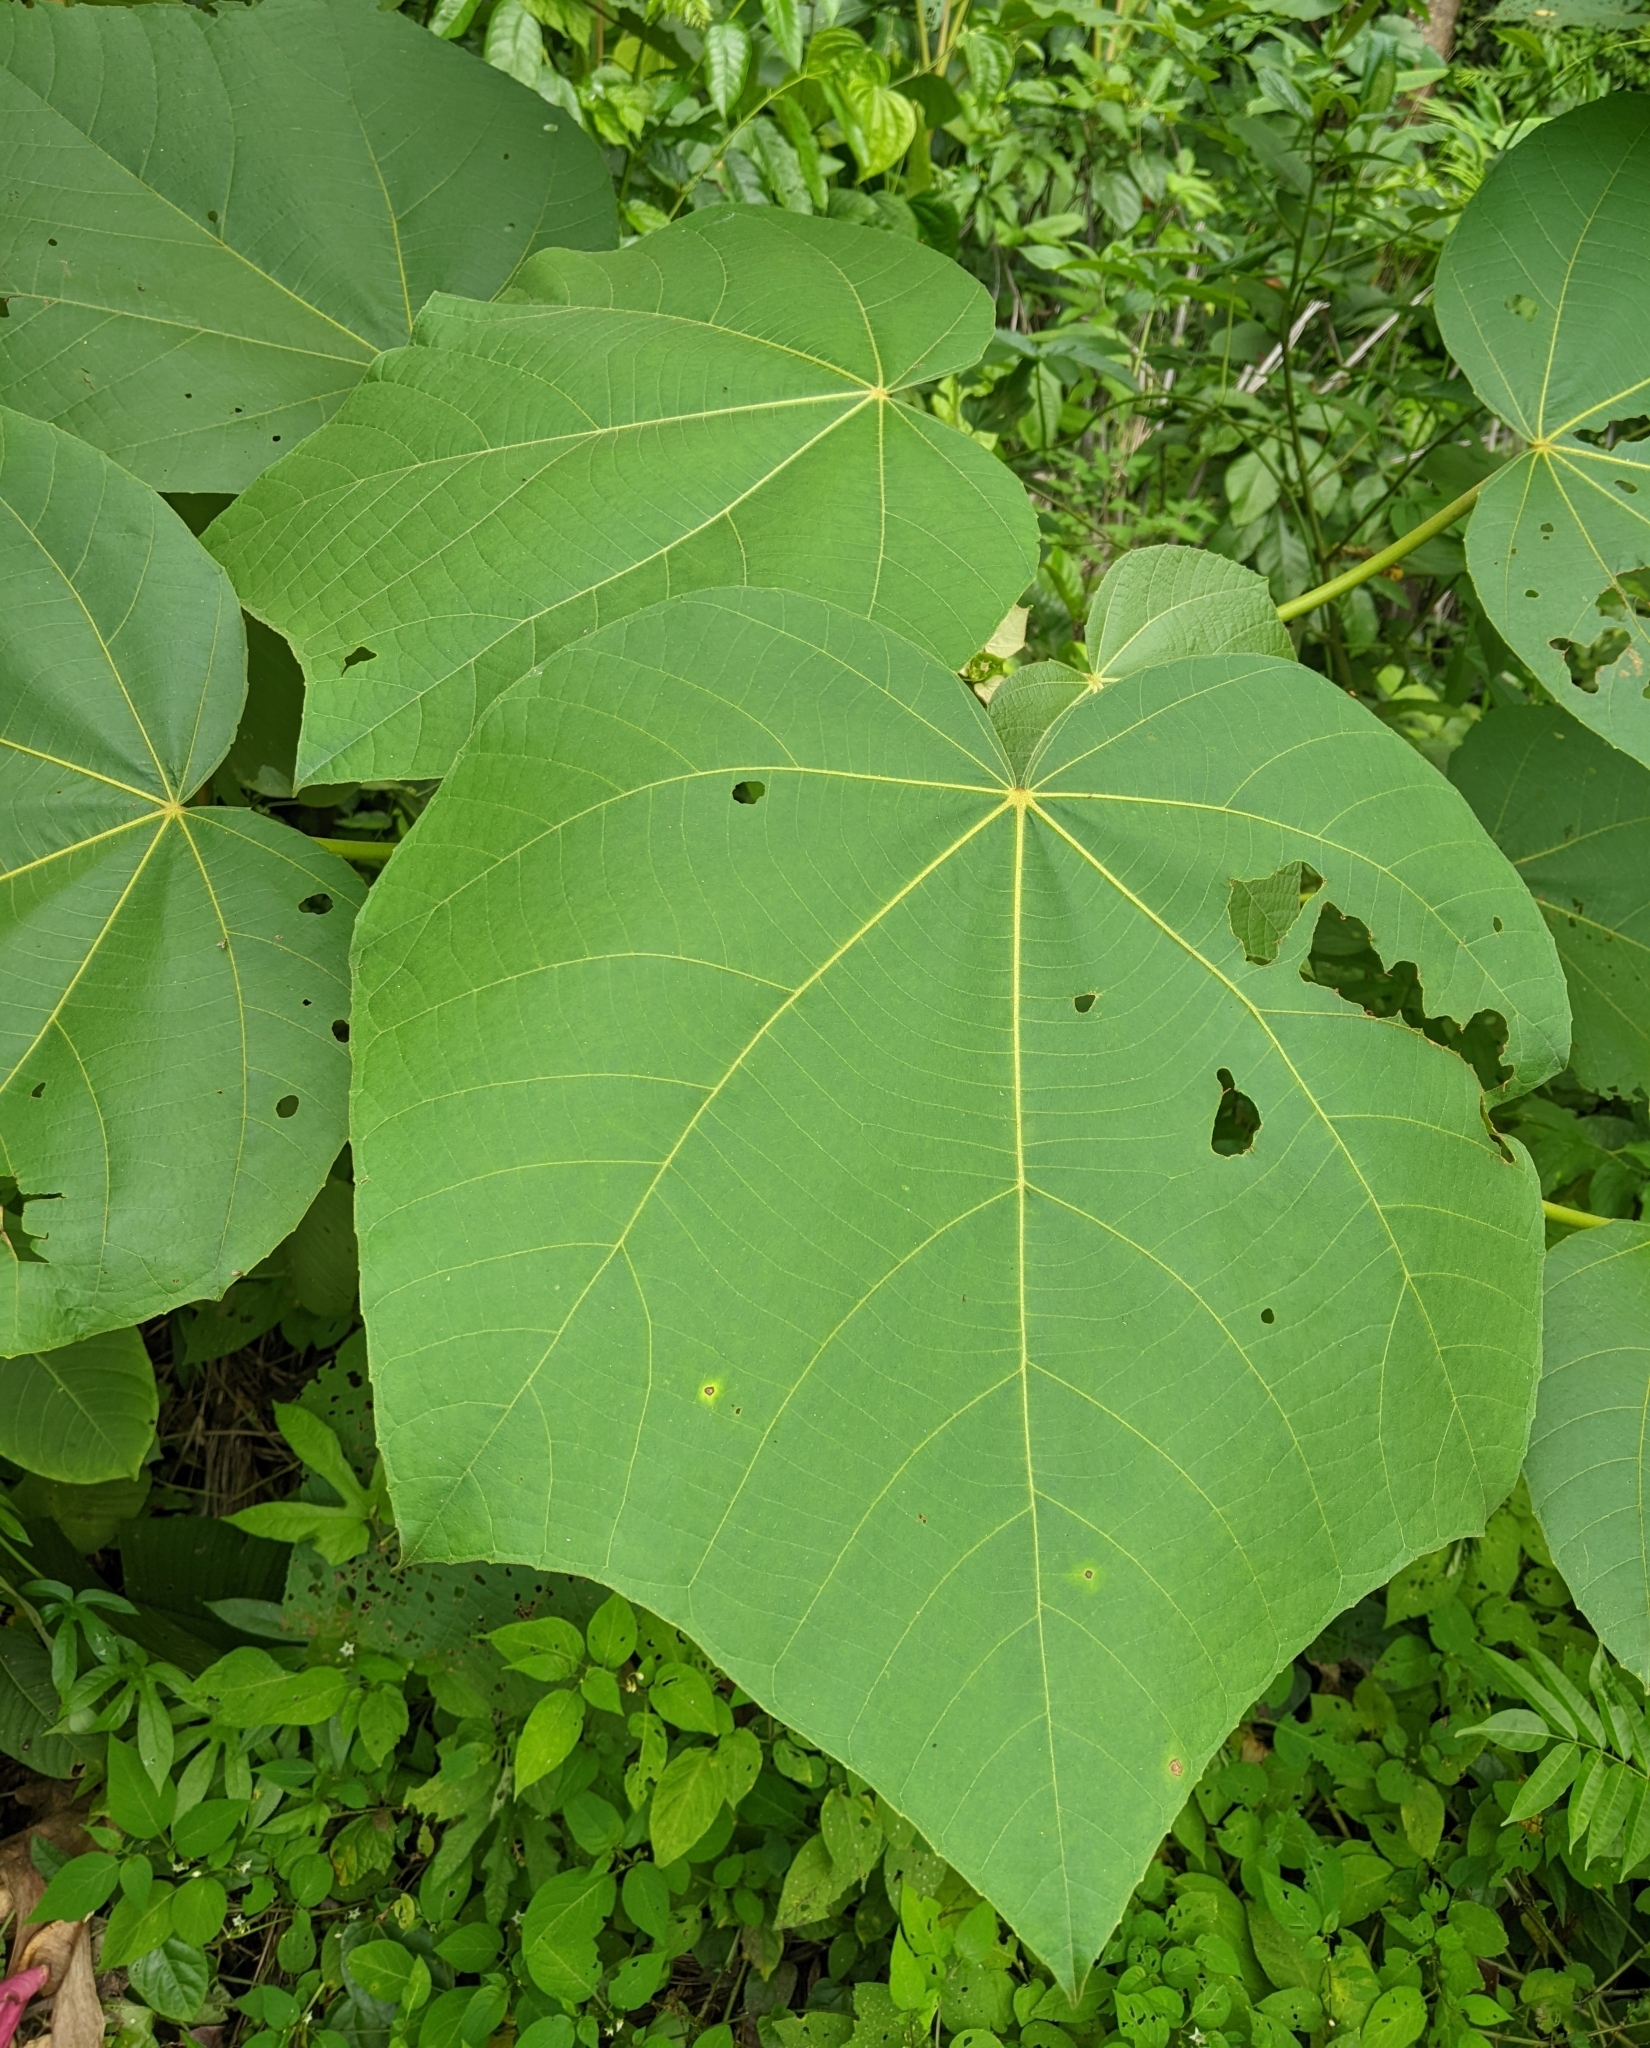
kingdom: Plantae
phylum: Tracheophyta
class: Magnoliopsida
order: Malvales
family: Malvaceae
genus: Ochroma
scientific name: Ochroma pyramidale
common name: Balsa
